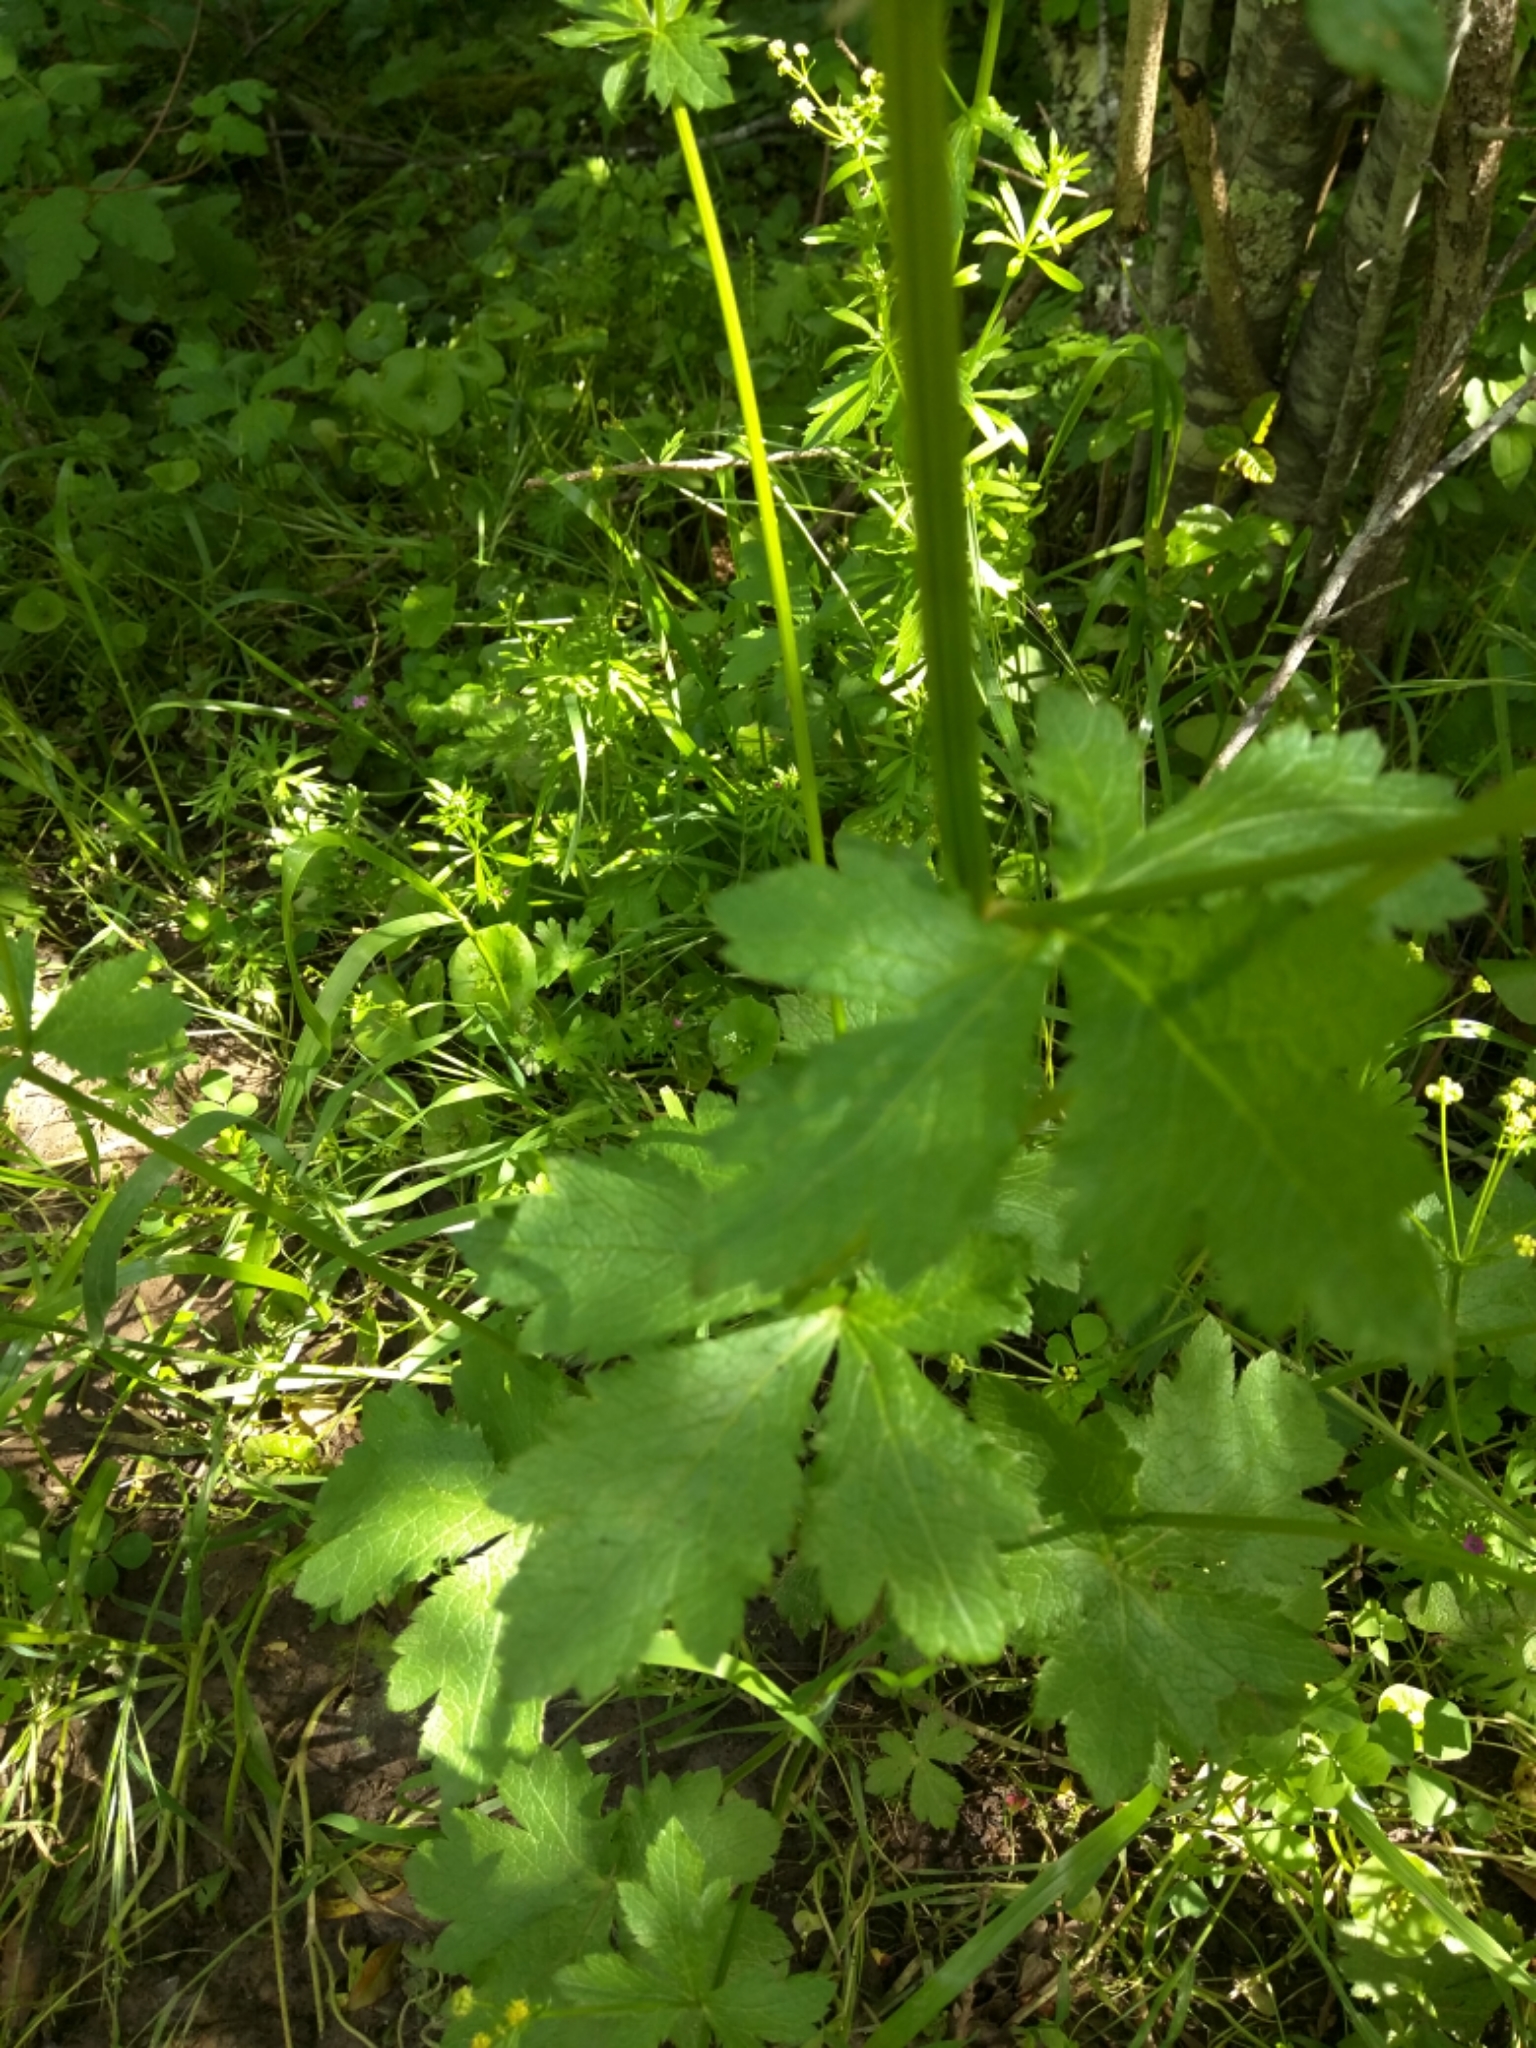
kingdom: Plantae
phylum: Tracheophyta
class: Magnoliopsida
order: Apiales
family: Apiaceae
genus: Sanicula
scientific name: Sanicula crassicaulis
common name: Western snakeroot
